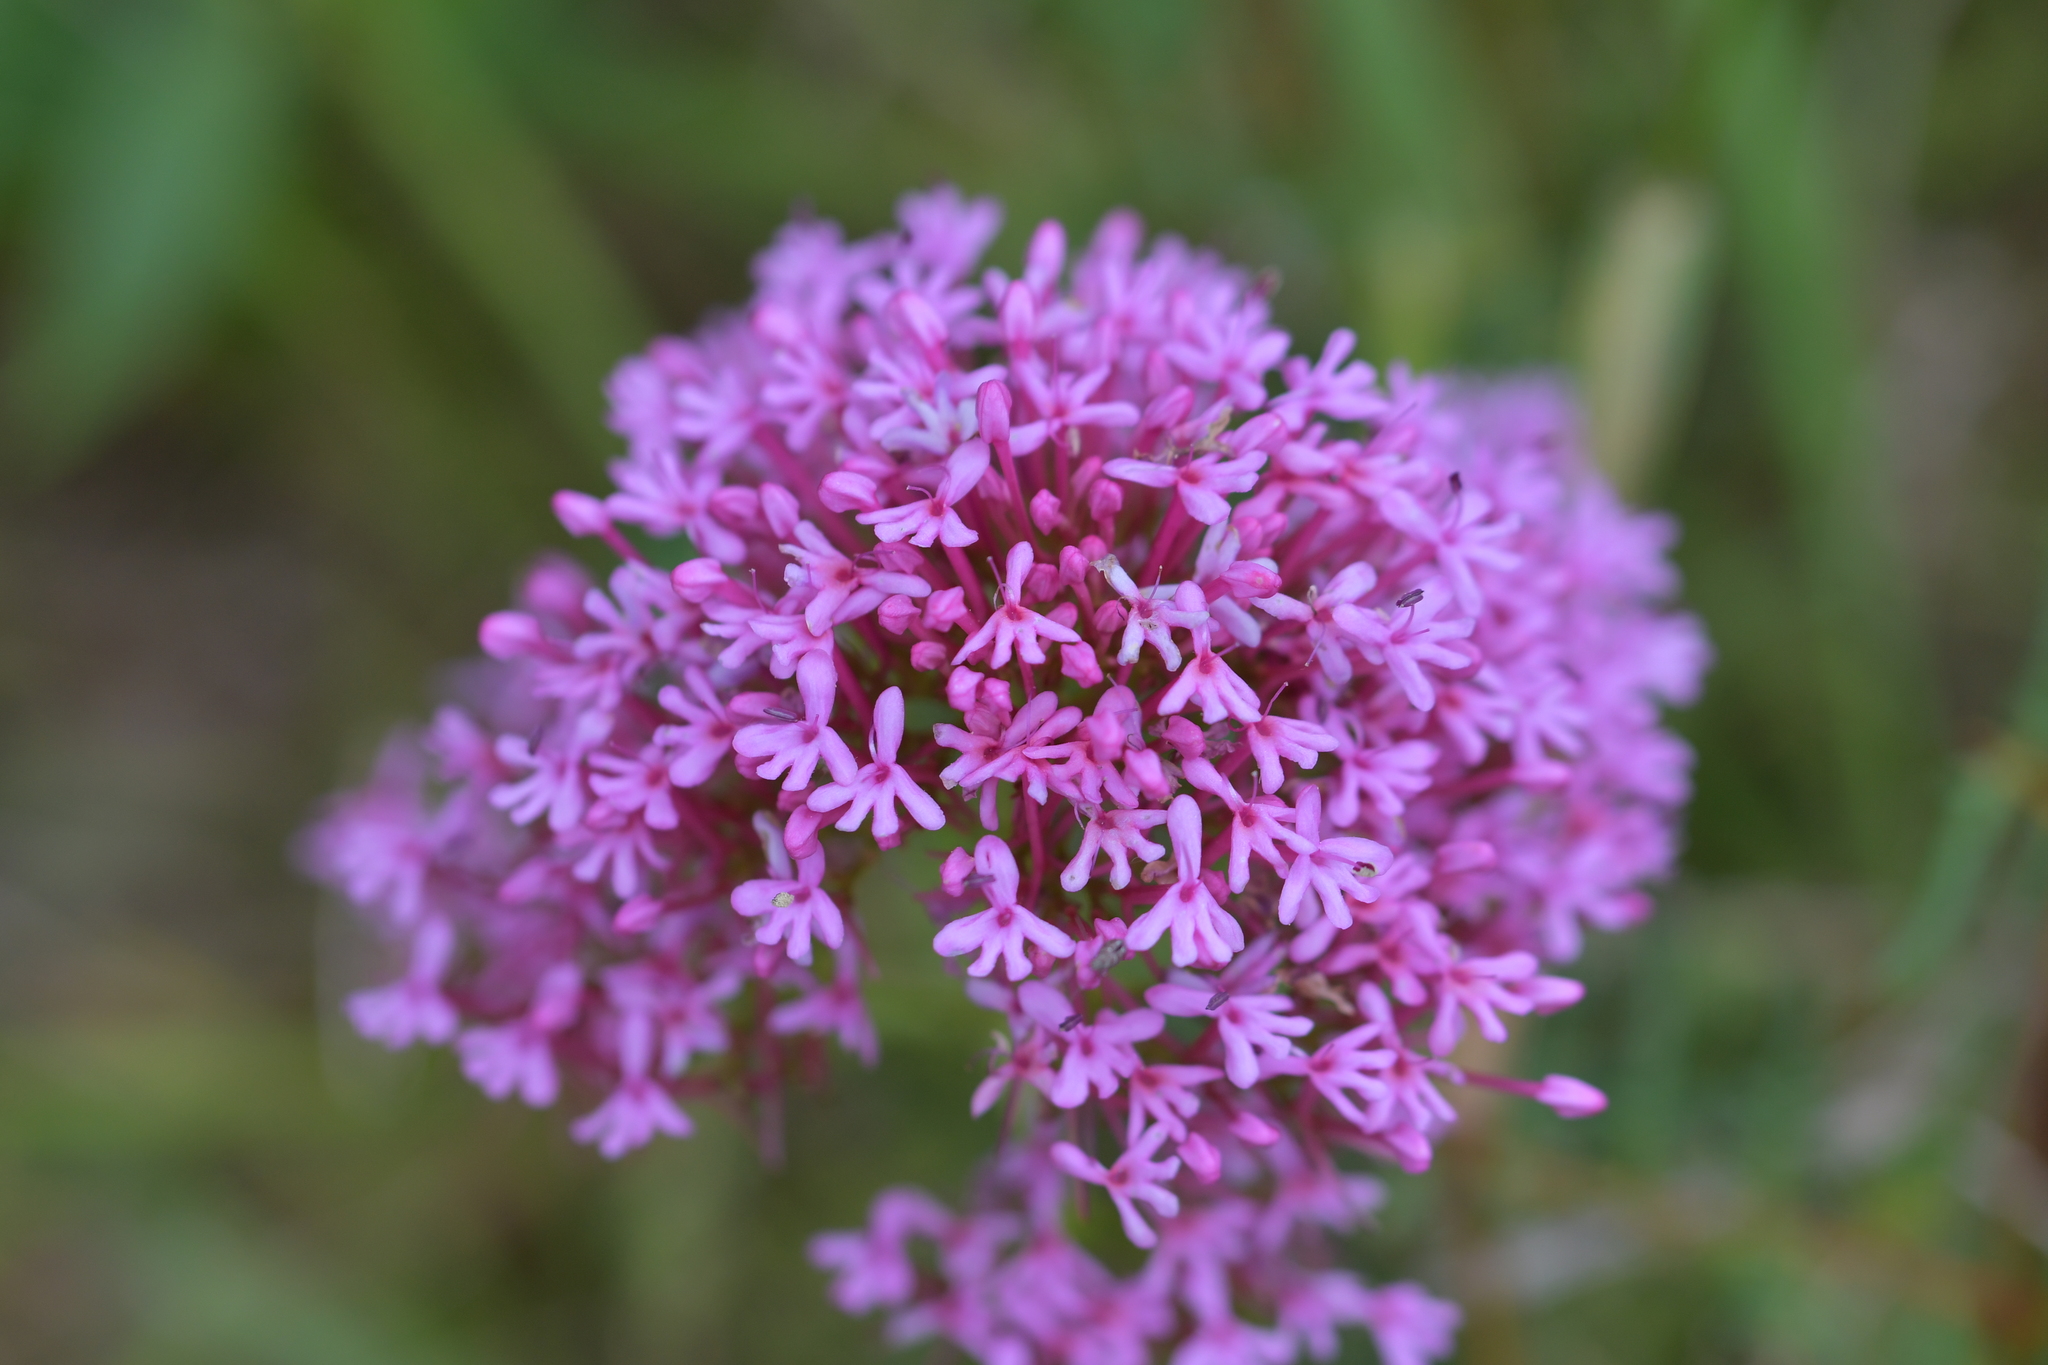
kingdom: Plantae
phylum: Tracheophyta
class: Magnoliopsida
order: Dipsacales
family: Caprifoliaceae
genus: Centranthus
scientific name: Centranthus ruber
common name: Red valerian
